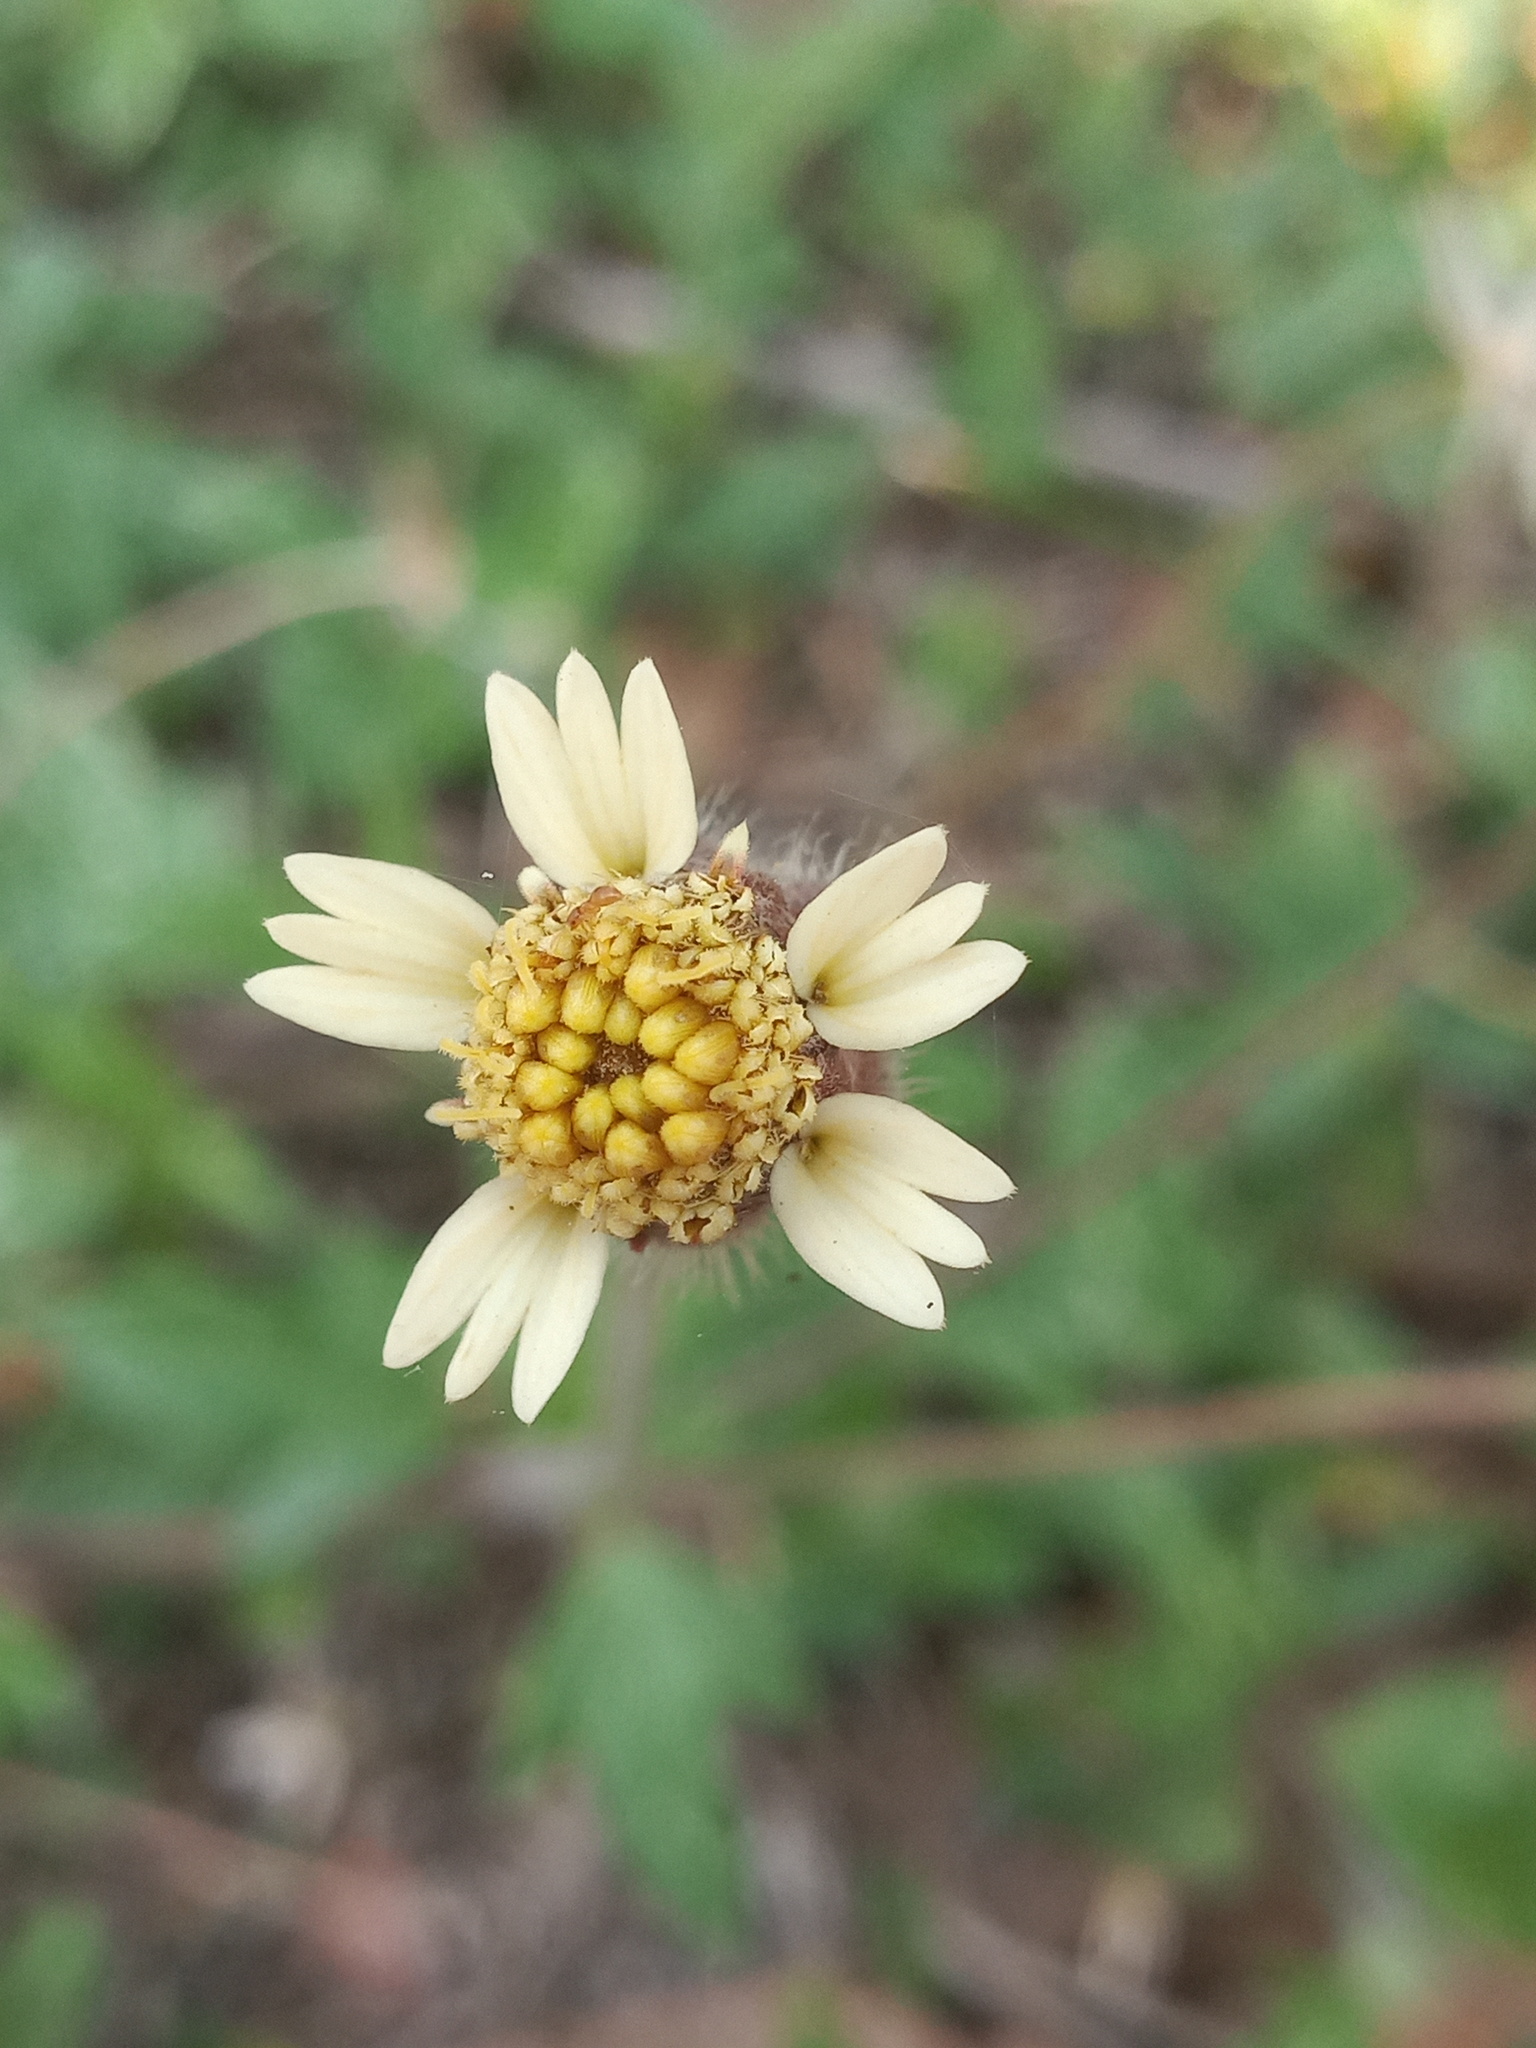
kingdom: Plantae
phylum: Tracheophyta
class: Magnoliopsida
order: Asterales
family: Asteraceae
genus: Tridax
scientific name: Tridax procumbens
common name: Coatbuttons
